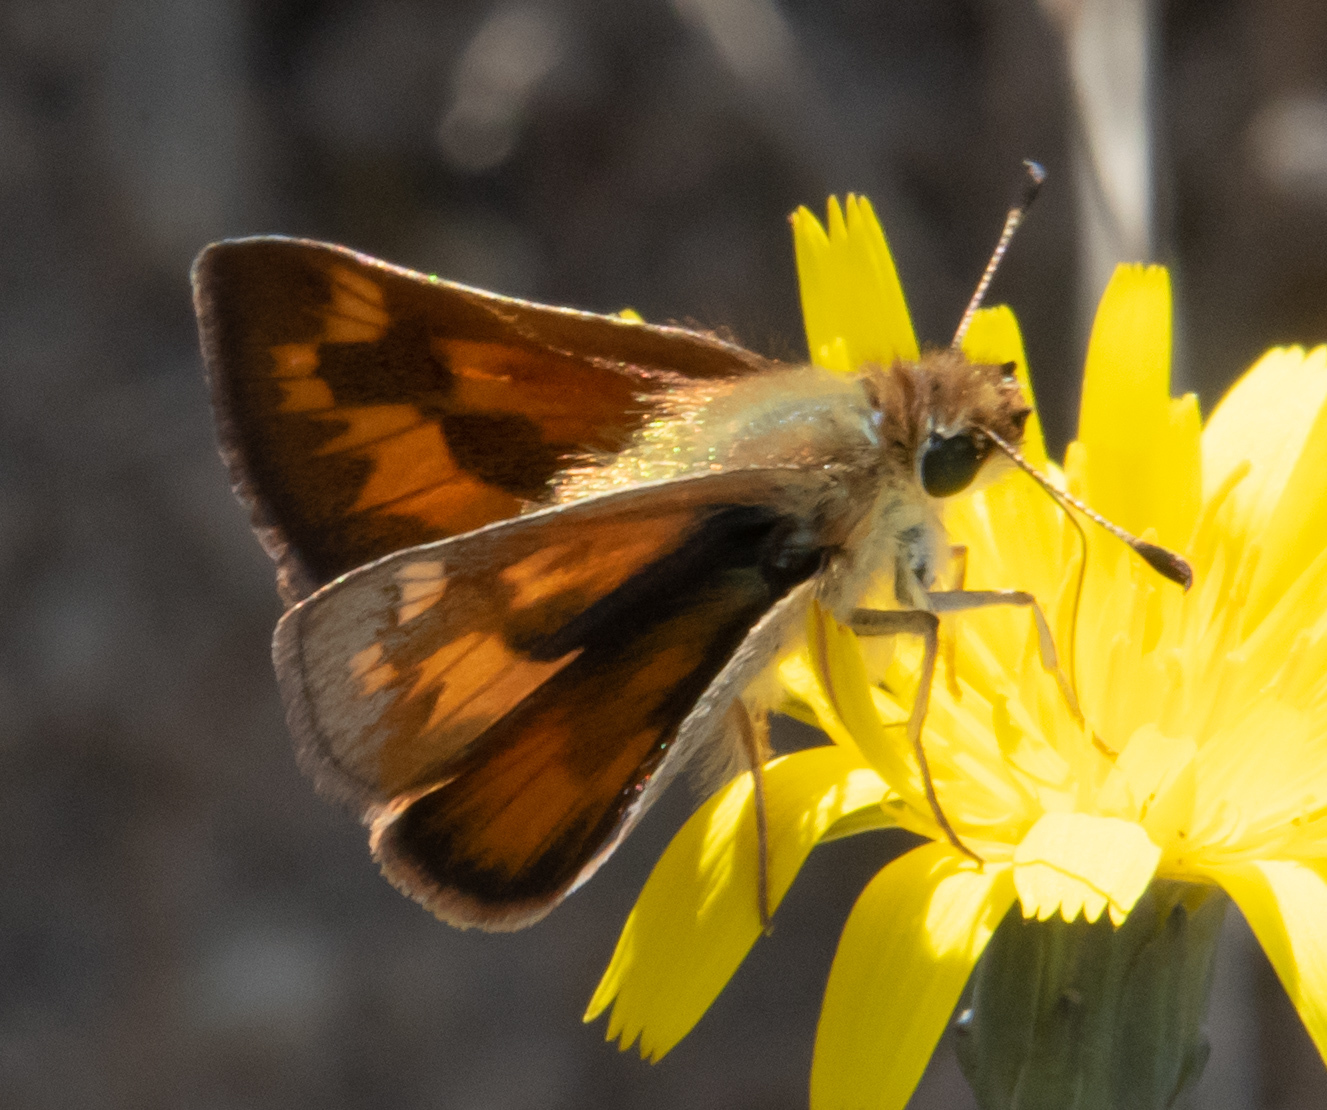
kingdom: Animalia
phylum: Arthropoda
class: Insecta
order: Lepidoptera
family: Hesperiidae
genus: Ochlodes
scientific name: Ochlodes sylvanoides
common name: Woodland skipper
